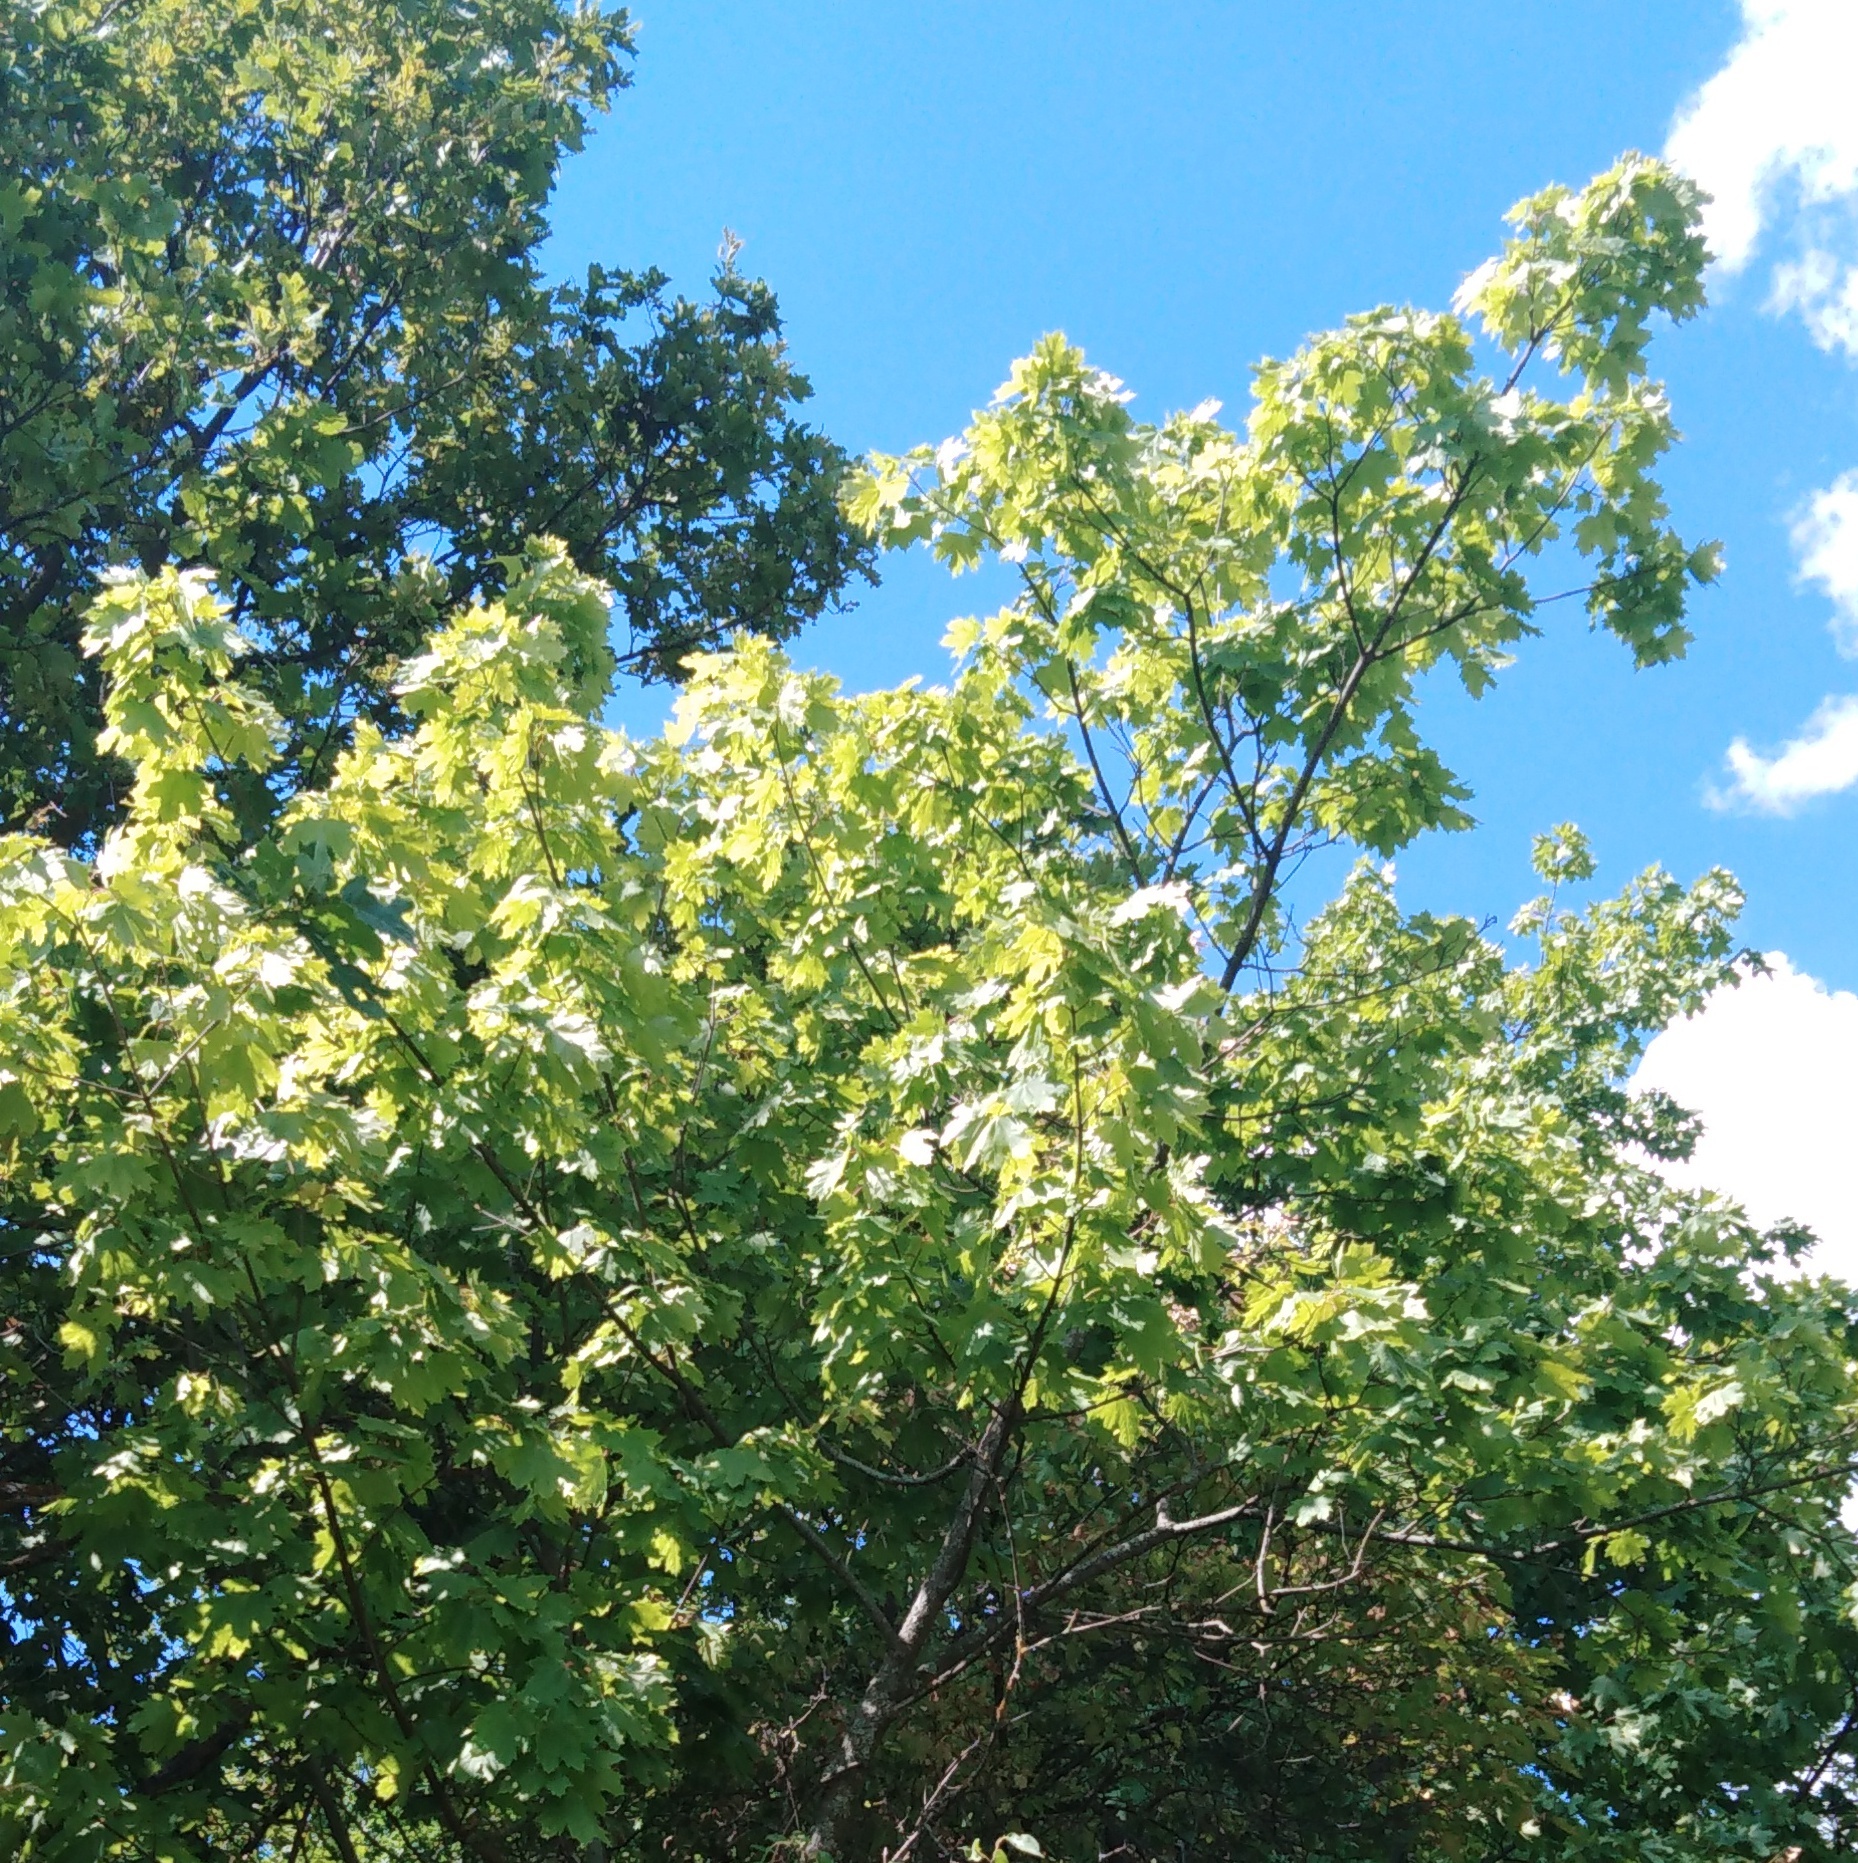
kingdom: Plantae
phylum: Tracheophyta
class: Magnoliopsida
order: Sapindales
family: Sapindaceae
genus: Acer
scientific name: Acer platanoides
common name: Norway maple
